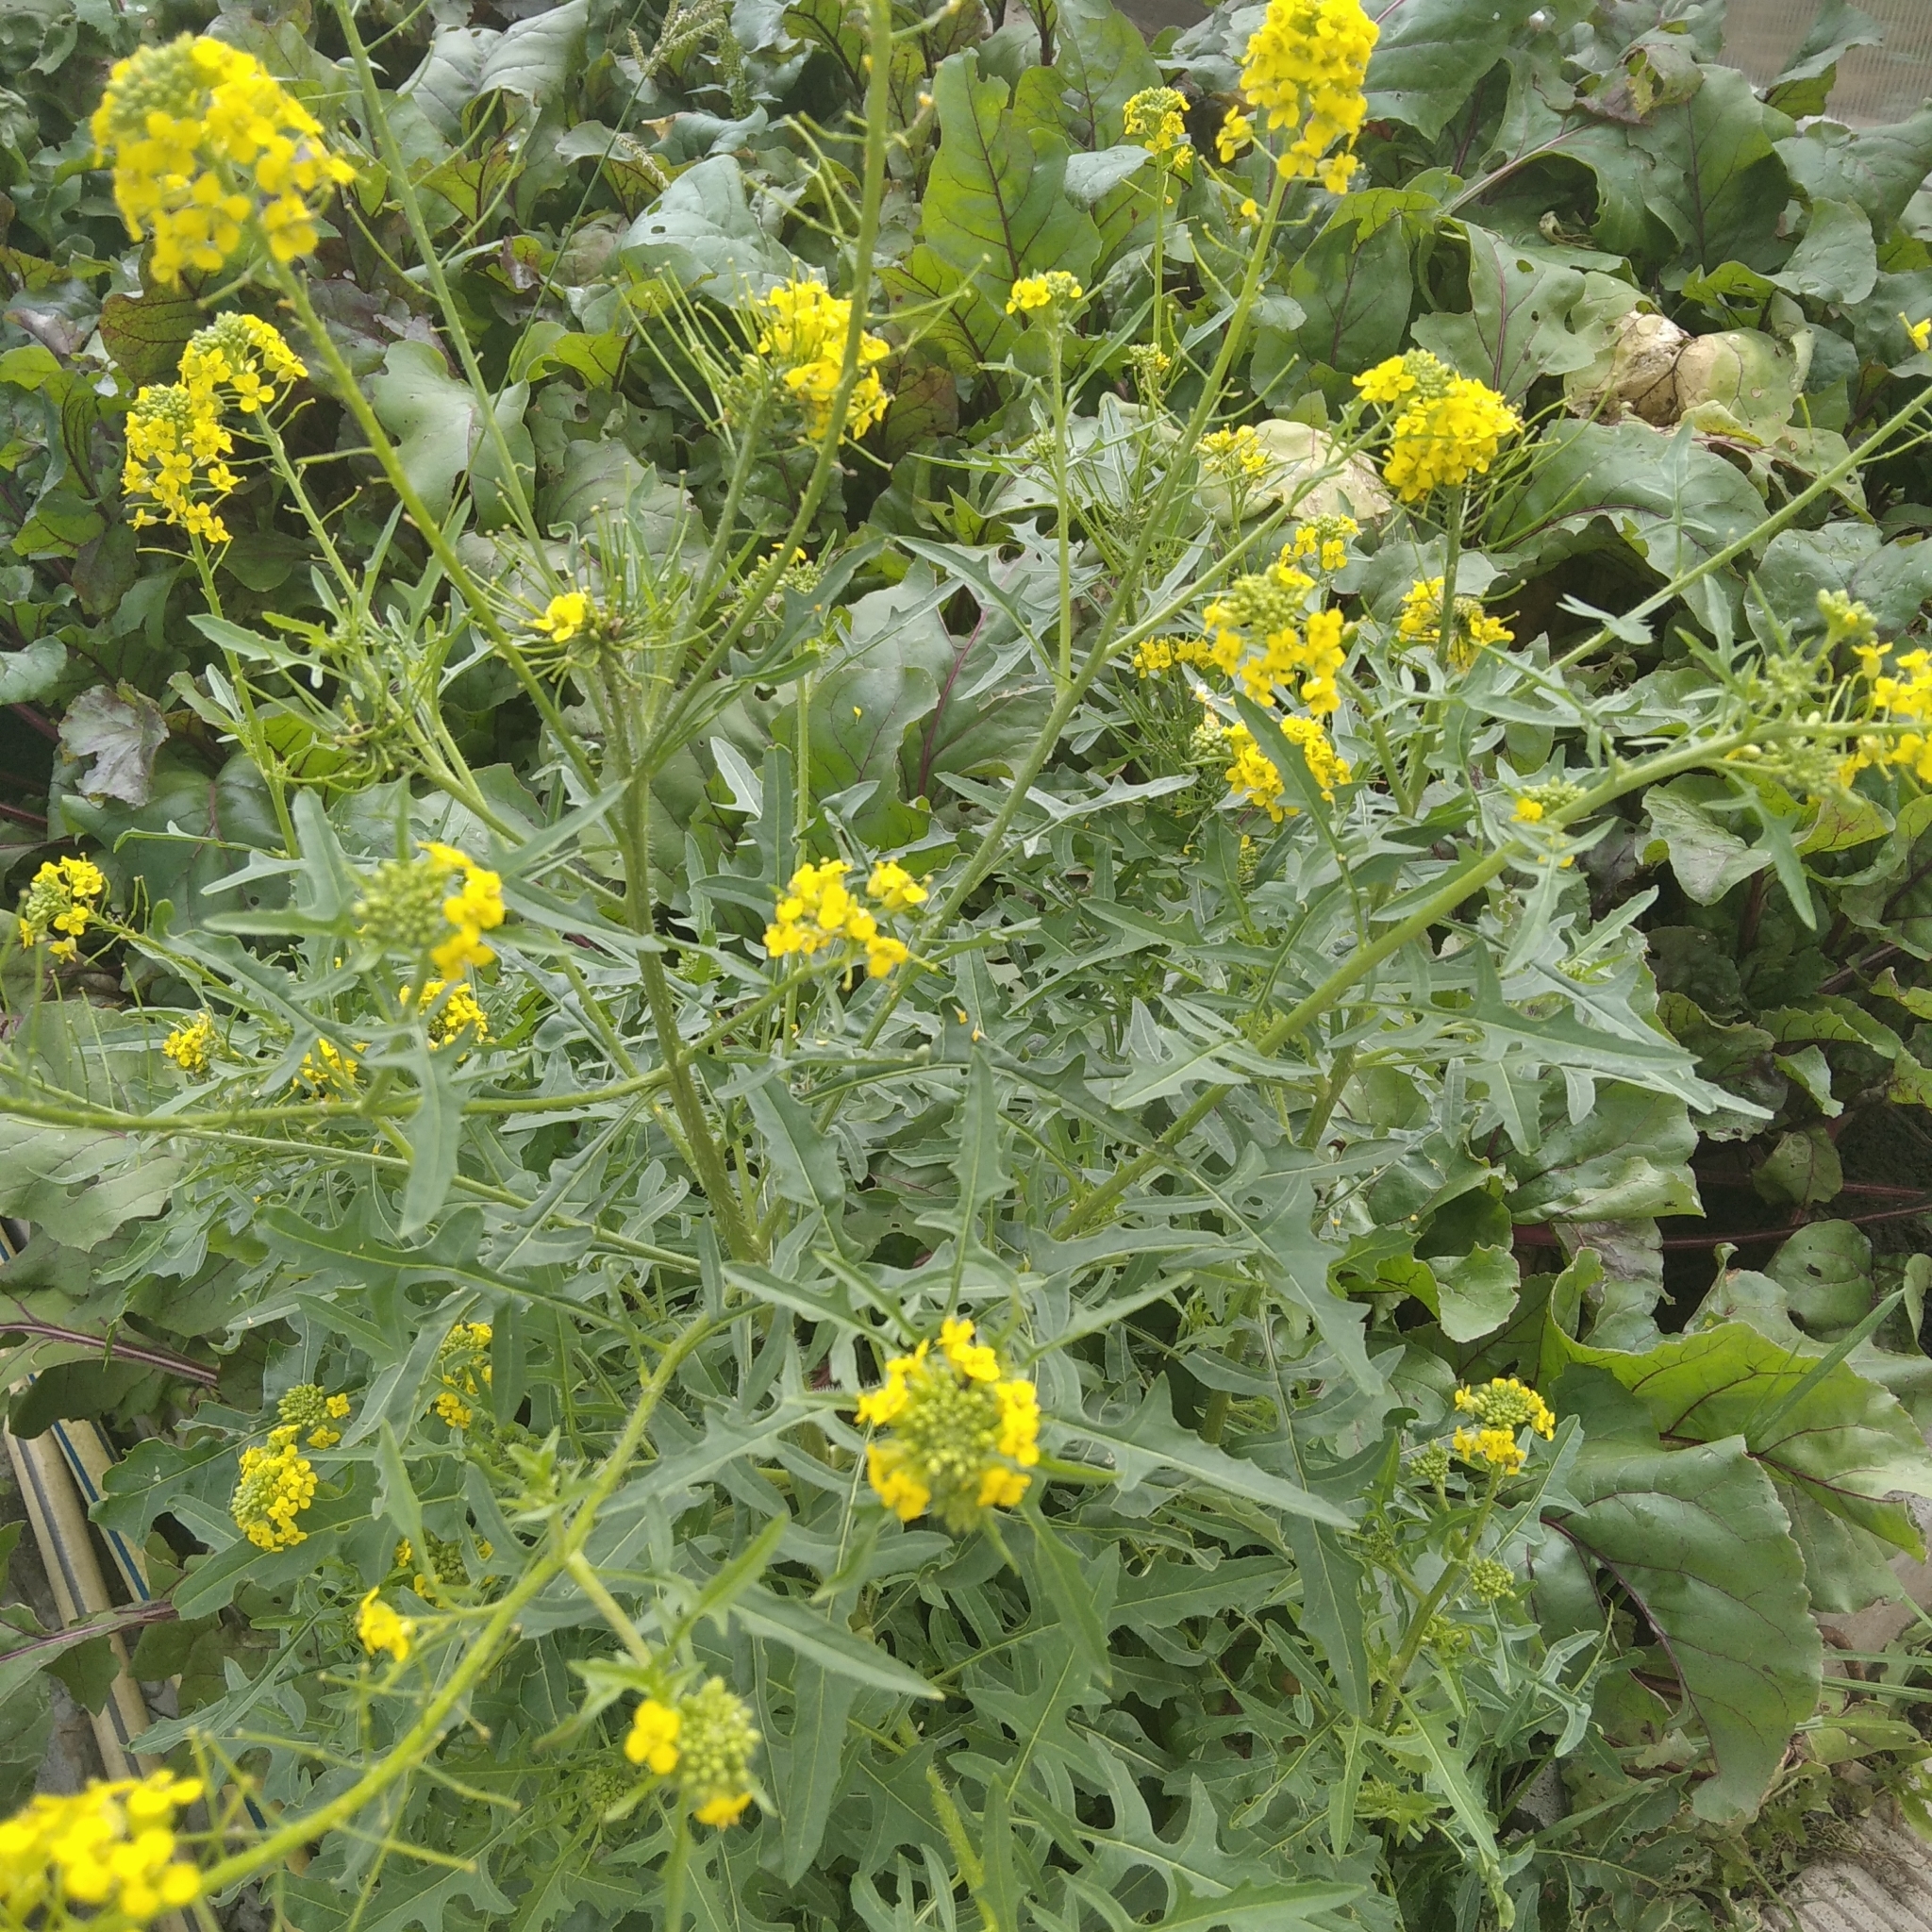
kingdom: Plantae
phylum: Tracheophyta
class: Magnoliopsida
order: Brassicales
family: Brassicaceae
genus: Sisymbrium
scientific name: Sisymbrium loeselii
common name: False london-rocket
